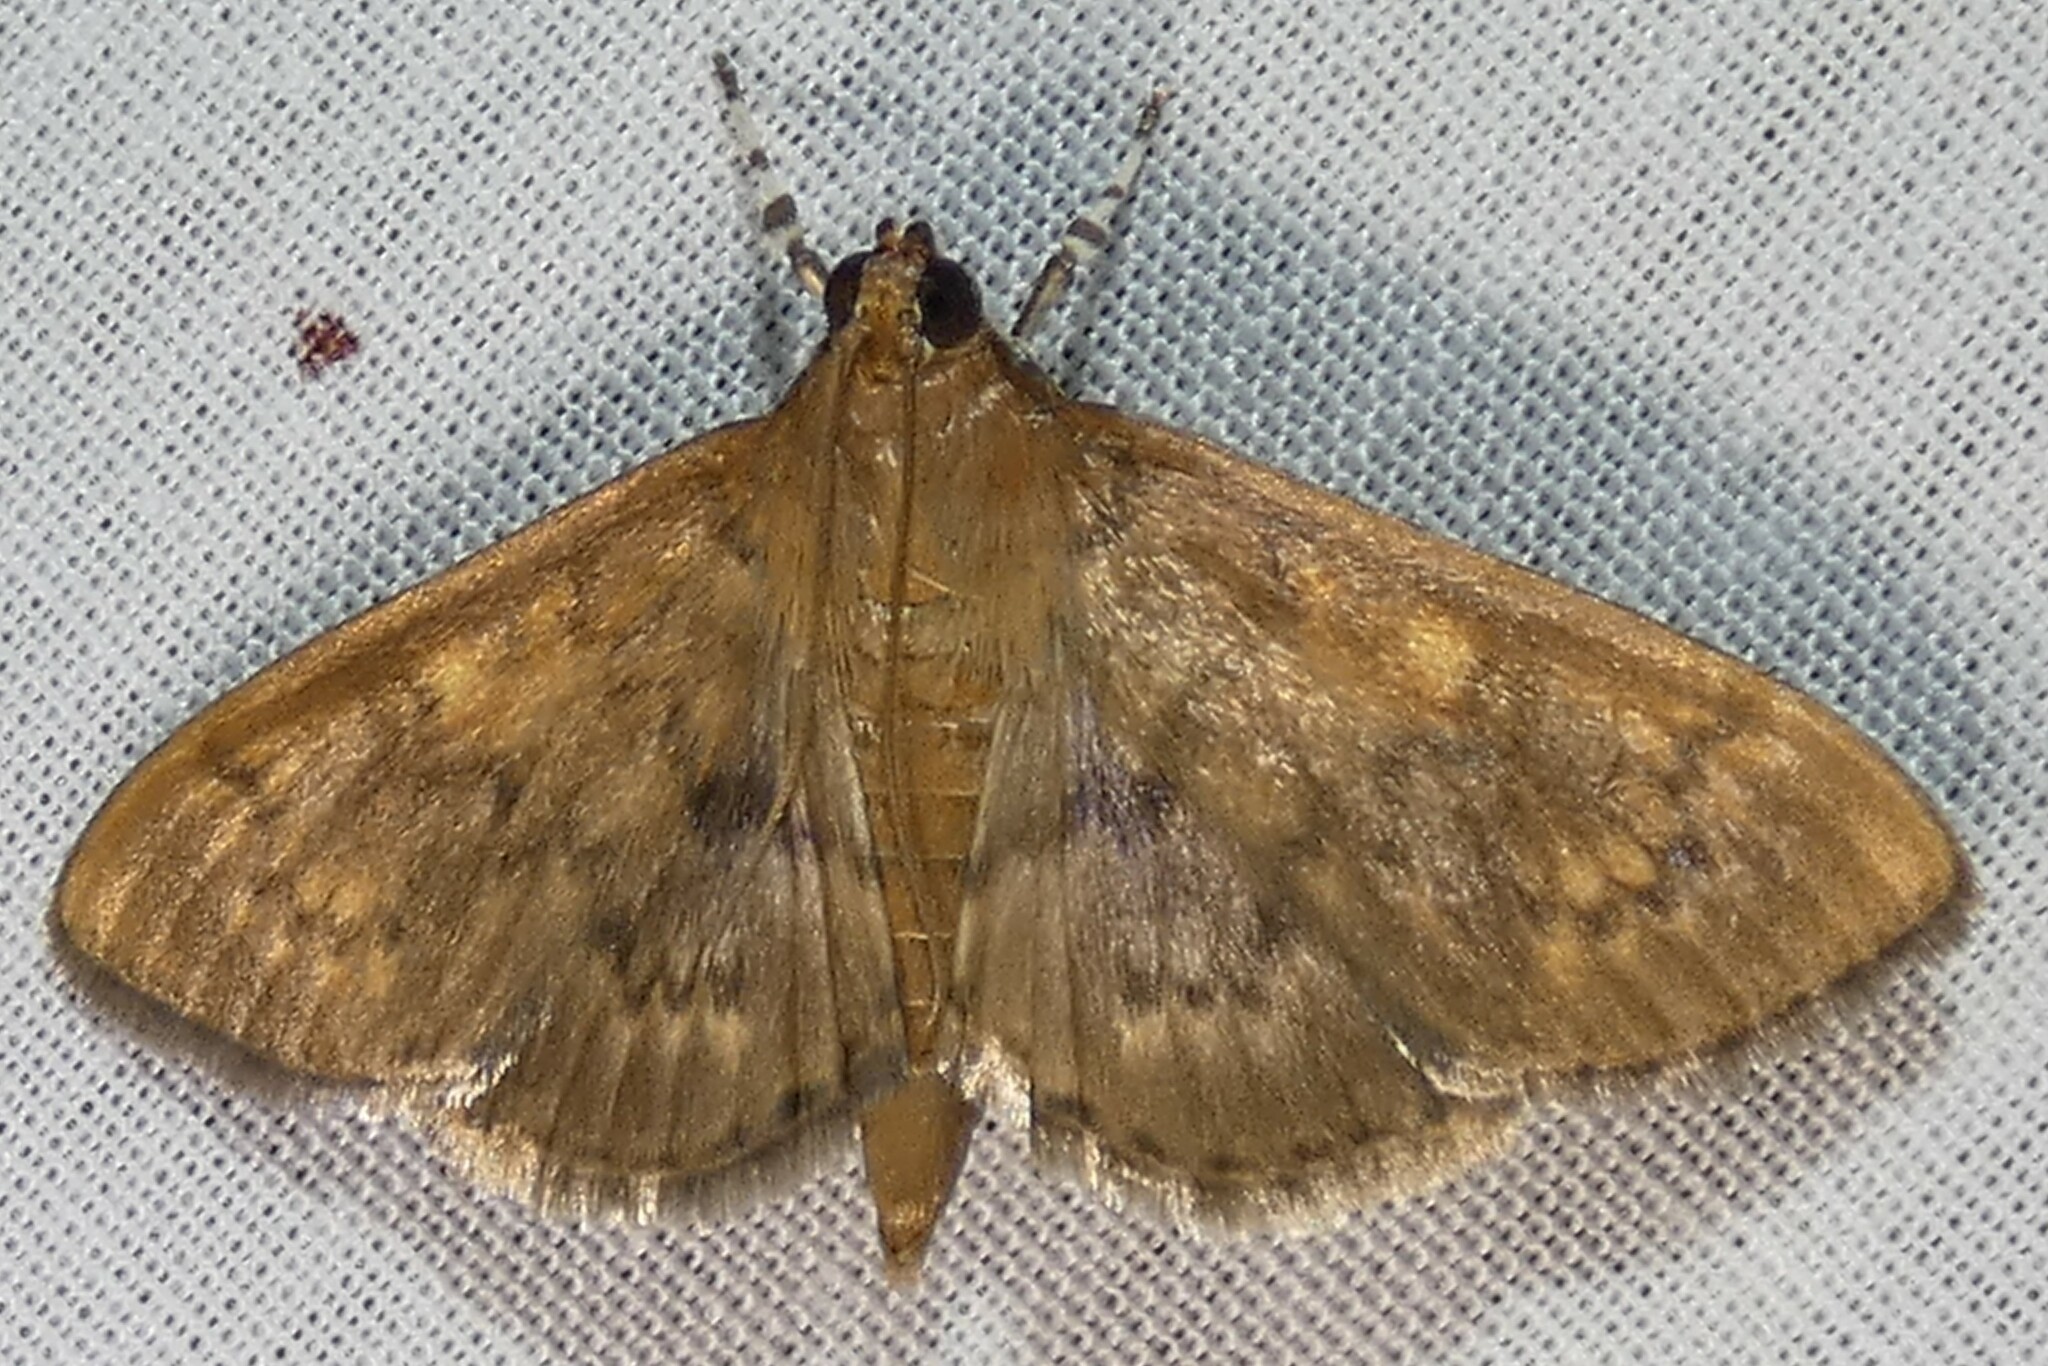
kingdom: Animalia
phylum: Arthropoda
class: Insecta
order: Lepidoptera
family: Crambidae
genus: Syllepte
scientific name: Syllepte obscuralis
